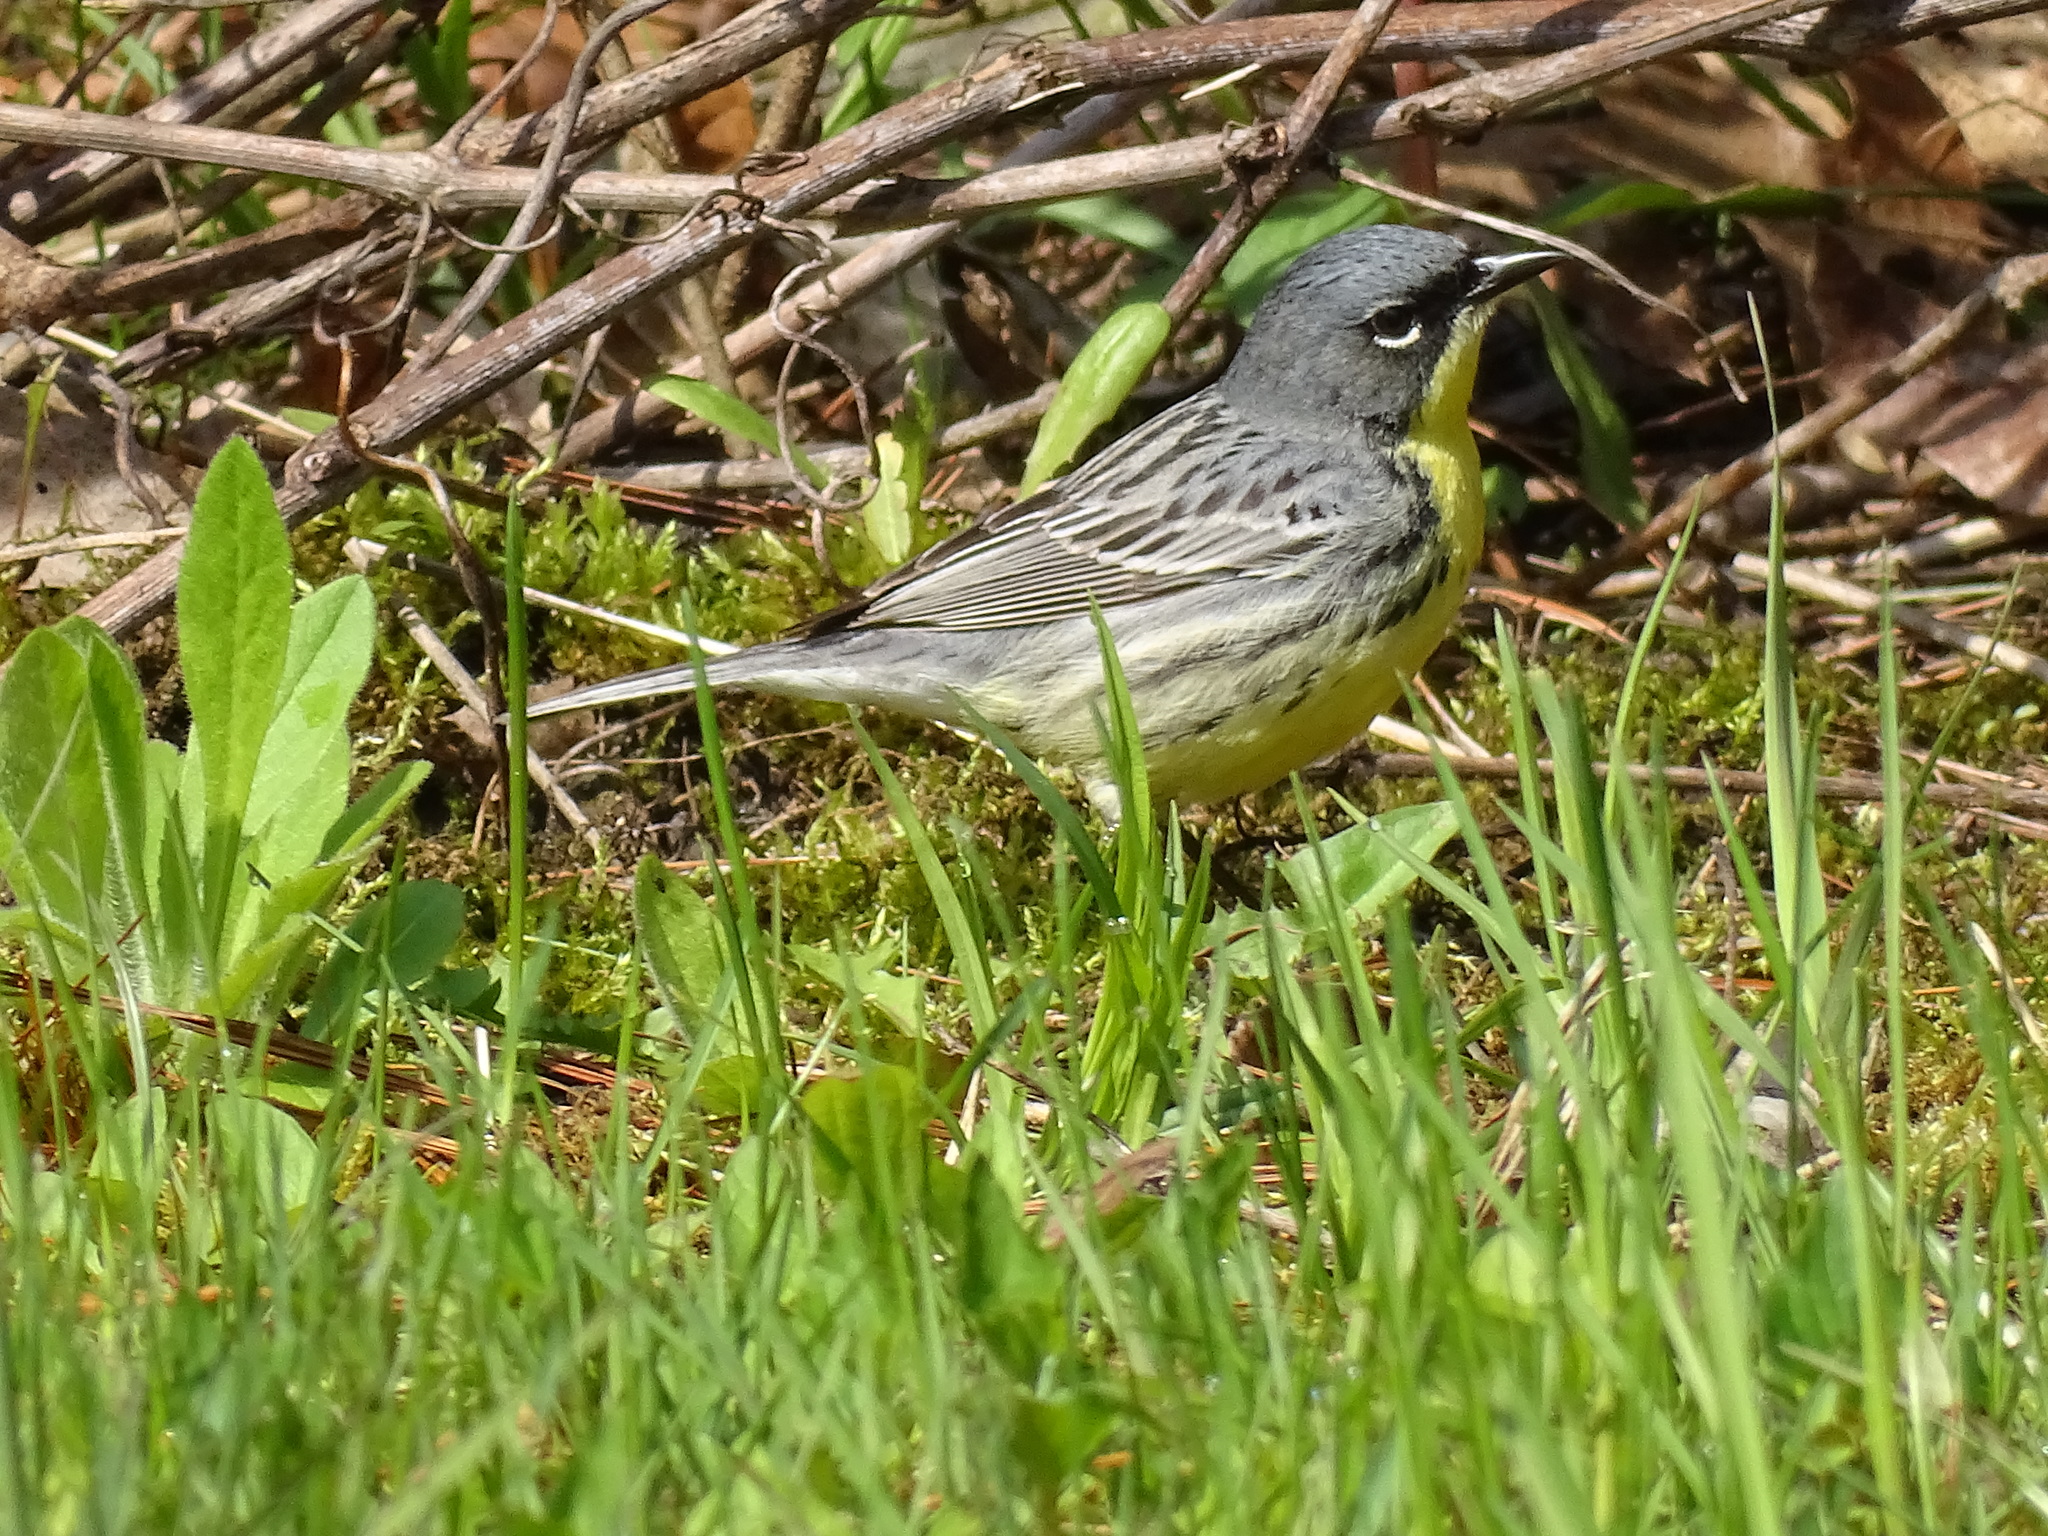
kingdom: Animalia
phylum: Chordata
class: Aves
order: Passeriformes
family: Parulidae
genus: Setophaga
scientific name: Setophaga kirtlandii
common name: Kirtland's warbler
